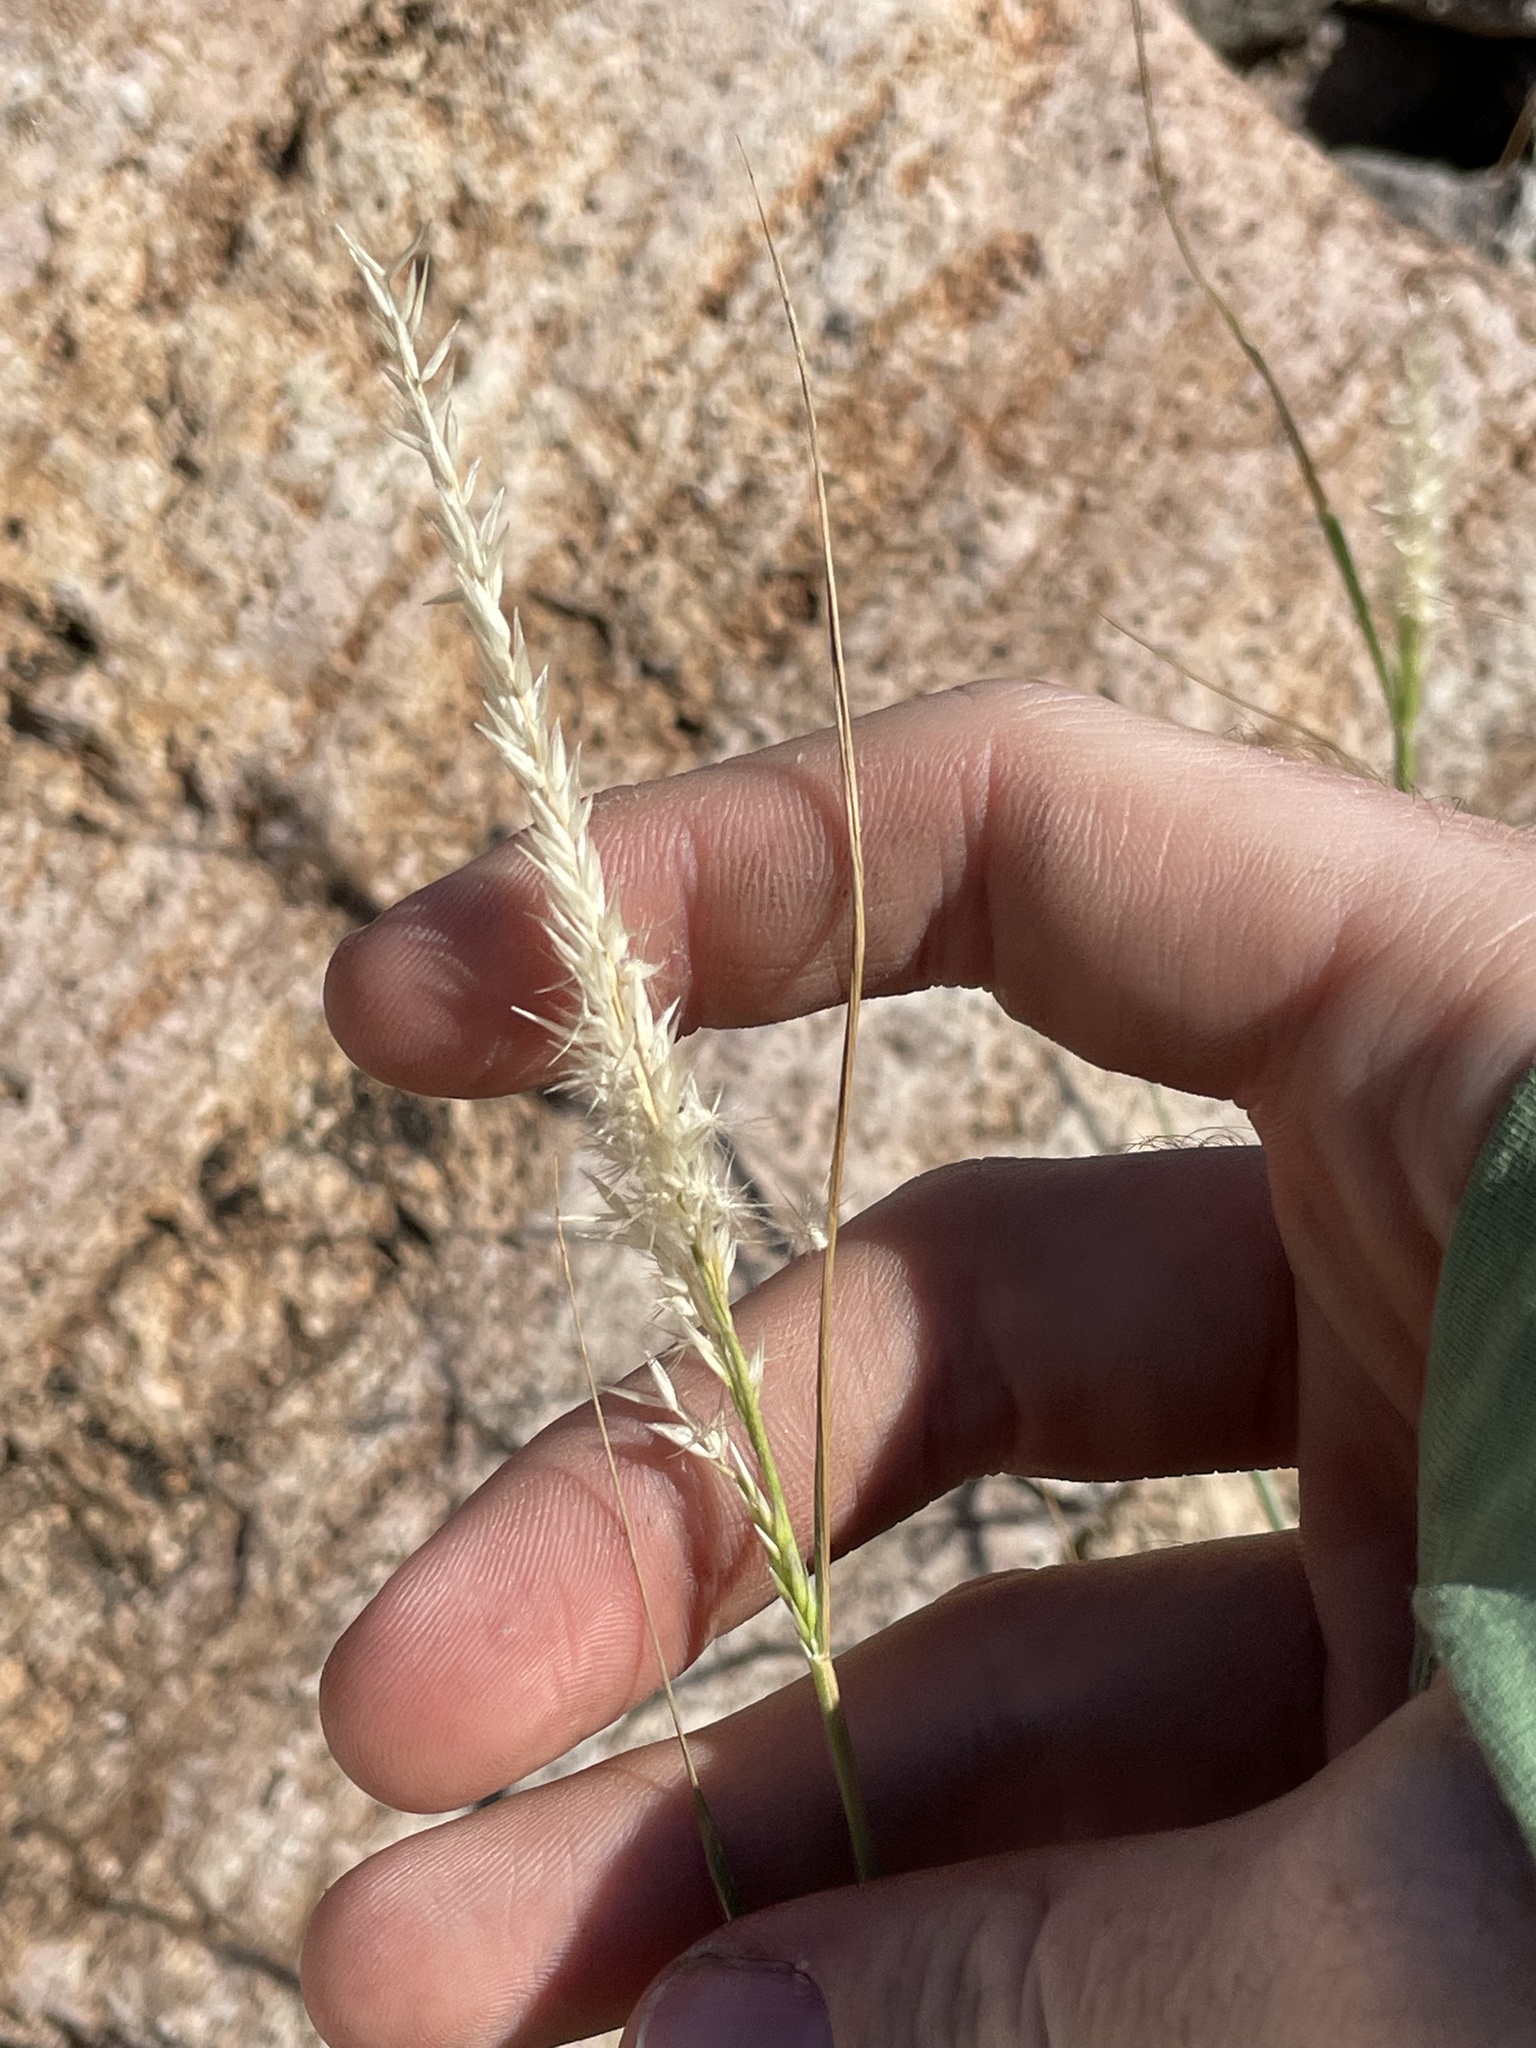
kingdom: Plantae
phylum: Tracheophyta
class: Liliopsida
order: Poales
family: Poaceae
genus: Enneapogon
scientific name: Enneapogon desvauxii
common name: Feather pappus grass
